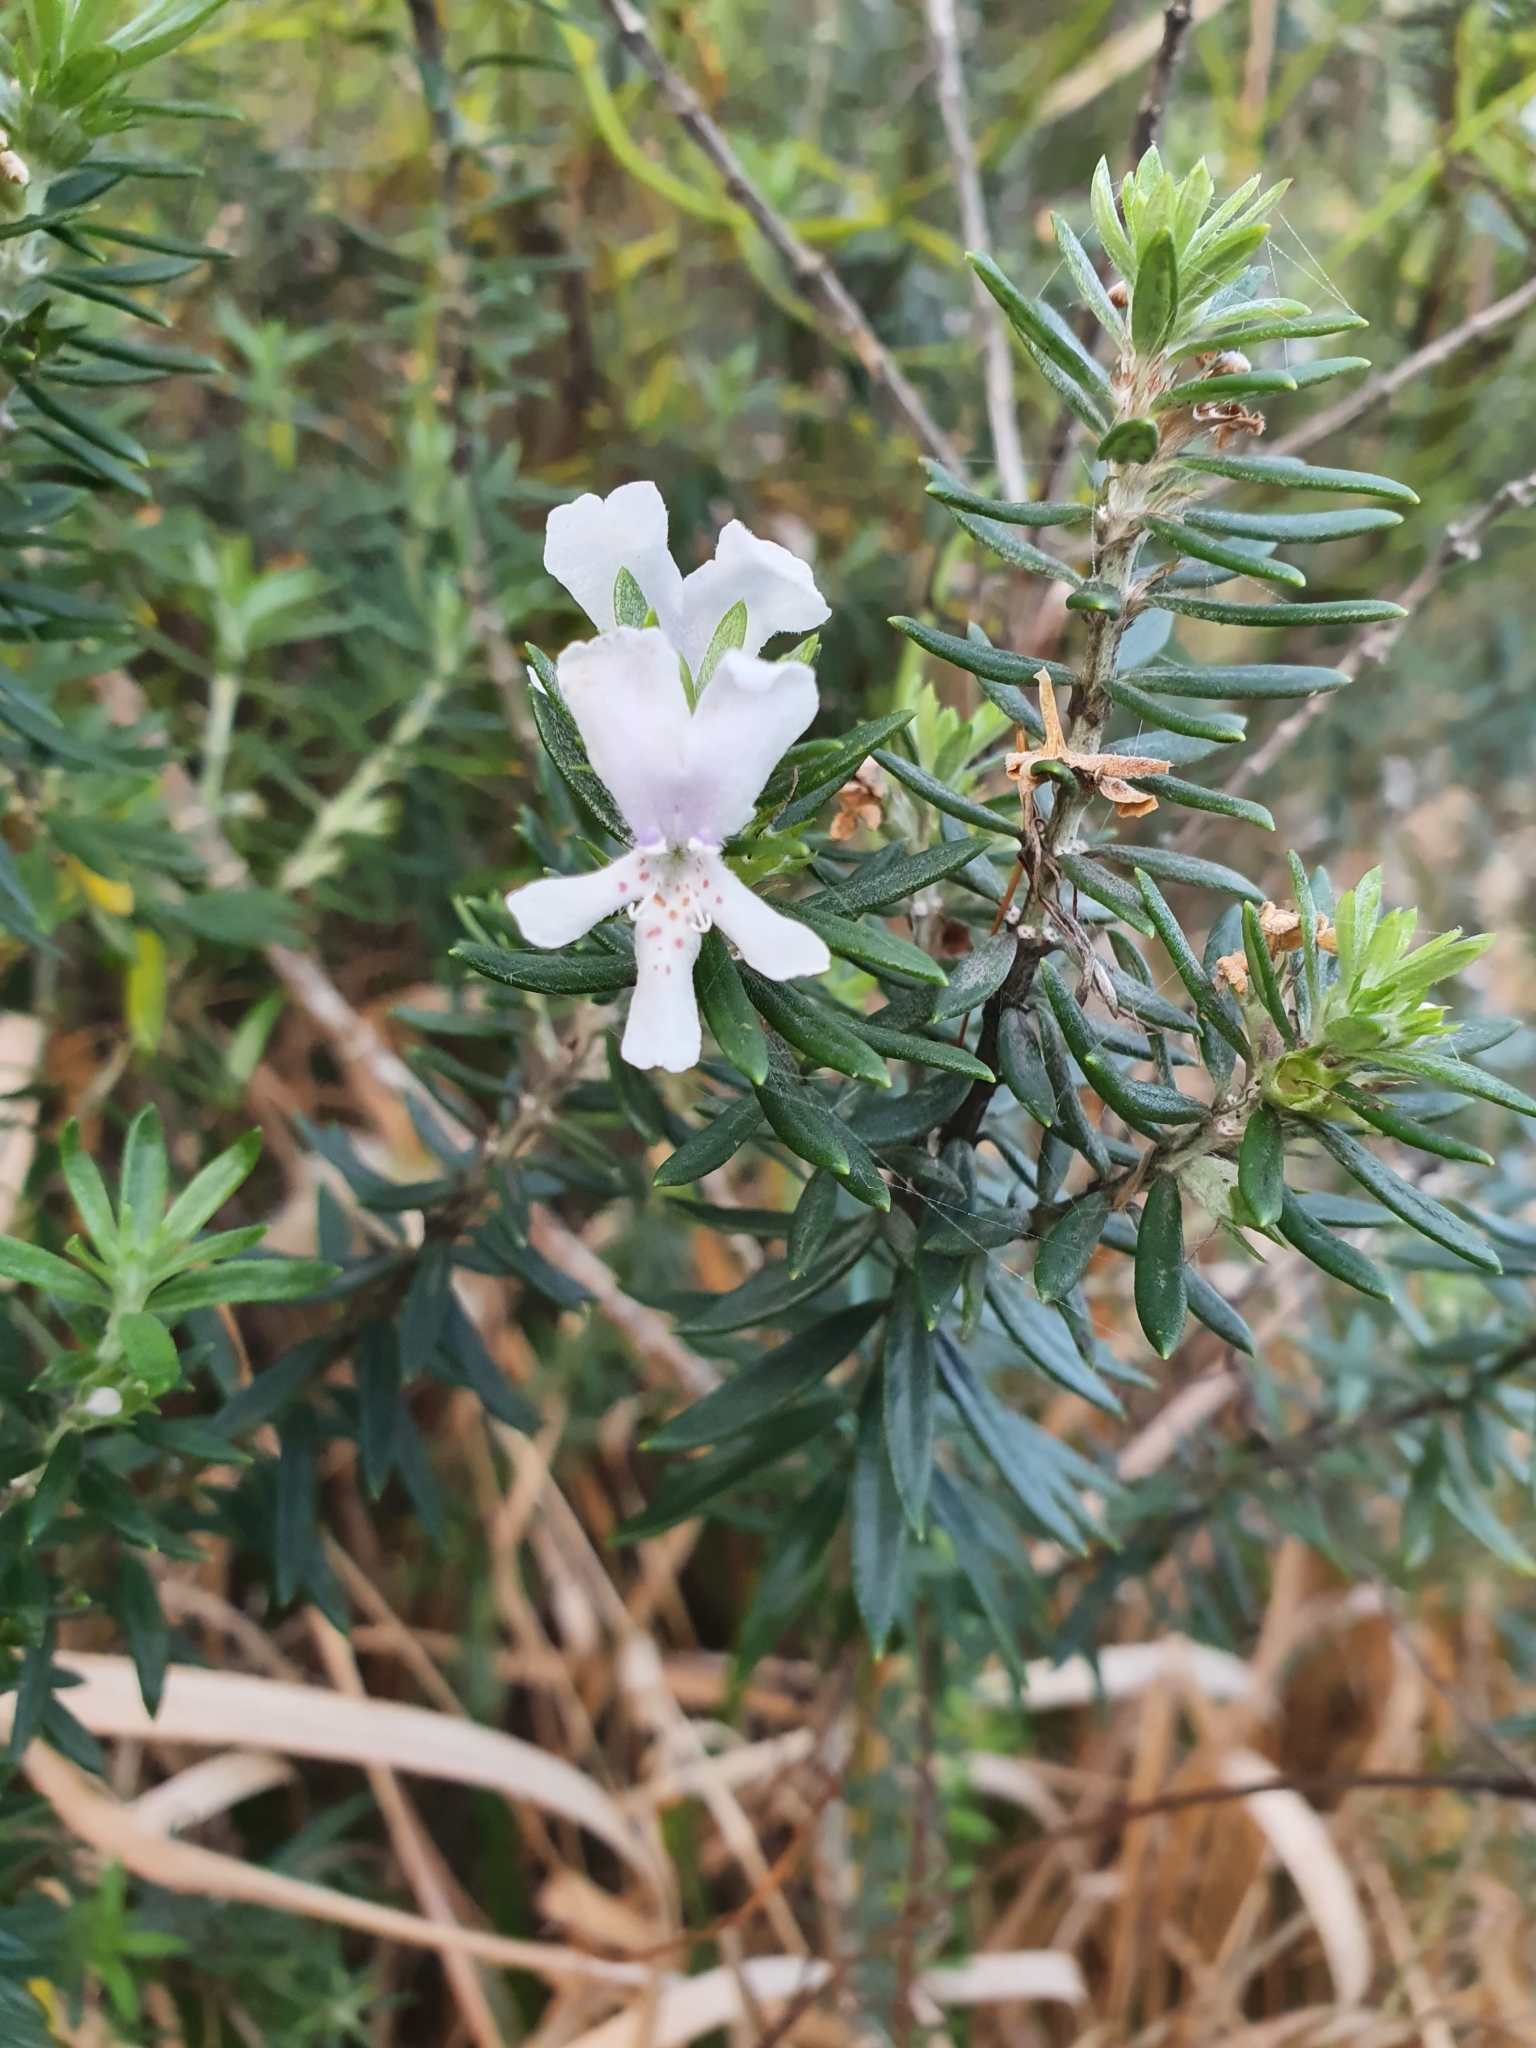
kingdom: Plantae
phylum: Tracheophyta
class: Magnoliopsida
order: Lamiales
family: Lamiaceae
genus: Westringia
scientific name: Westringia fruticosa
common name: Coastal-rosemary
